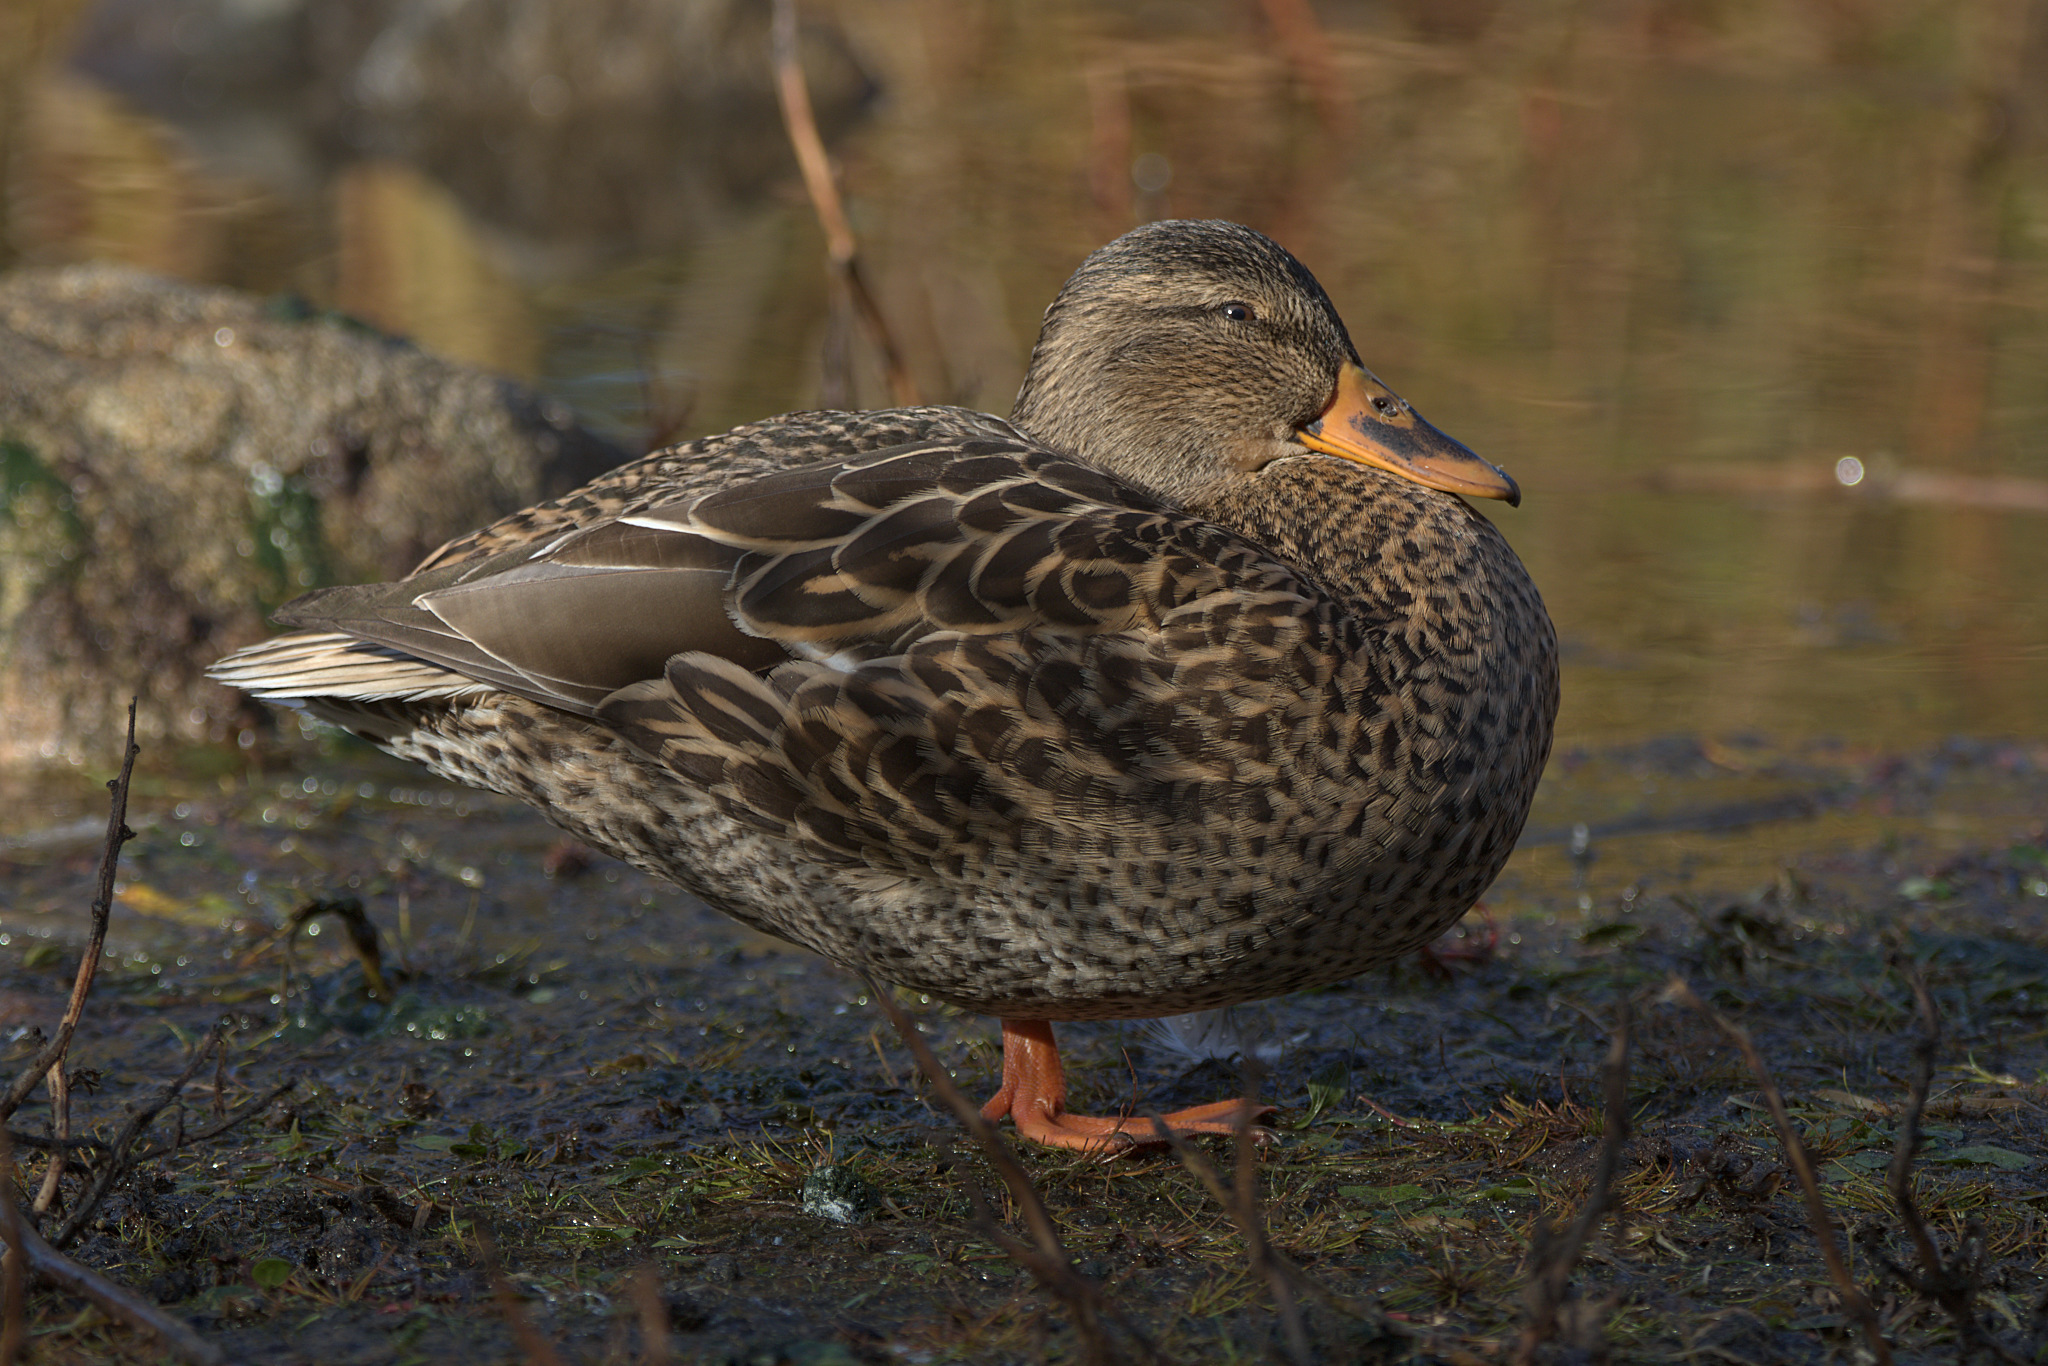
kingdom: Animalia
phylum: Chordata
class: Aves
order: Anseriformes
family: Anatidae
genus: Anas
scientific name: Anas platyrhynchos
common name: Mallard
